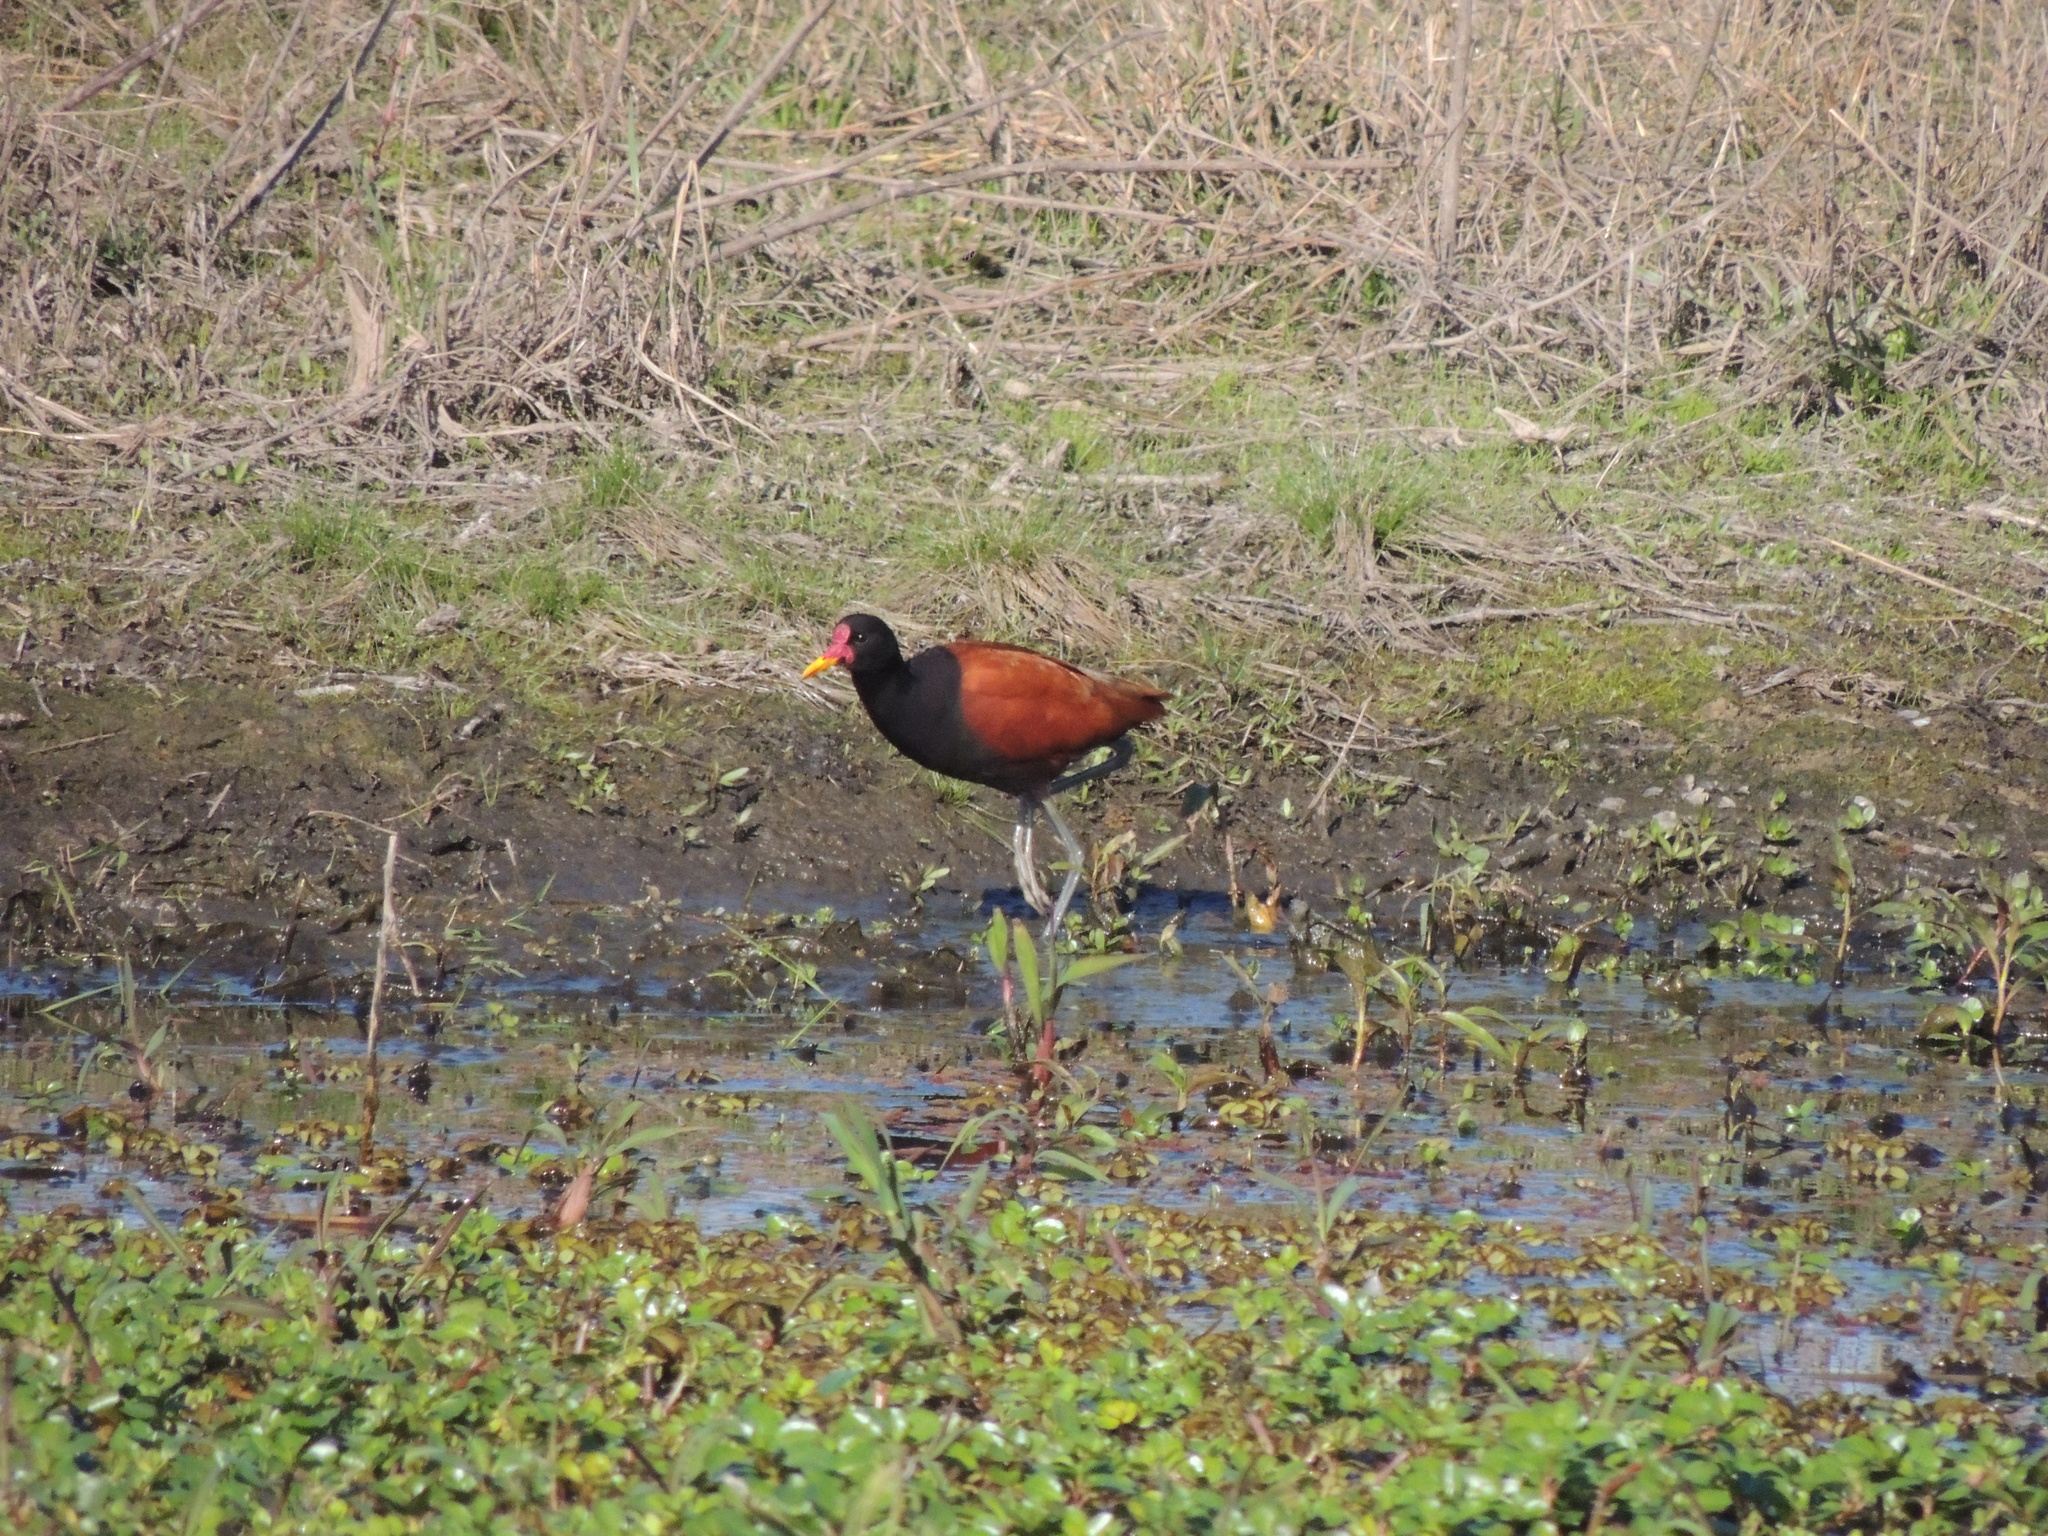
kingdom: Animalia
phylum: Chordata
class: Aves
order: Charadriiformes
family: Jacanidae
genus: Jacana
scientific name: Jacana jacana
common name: Wattled jacana
